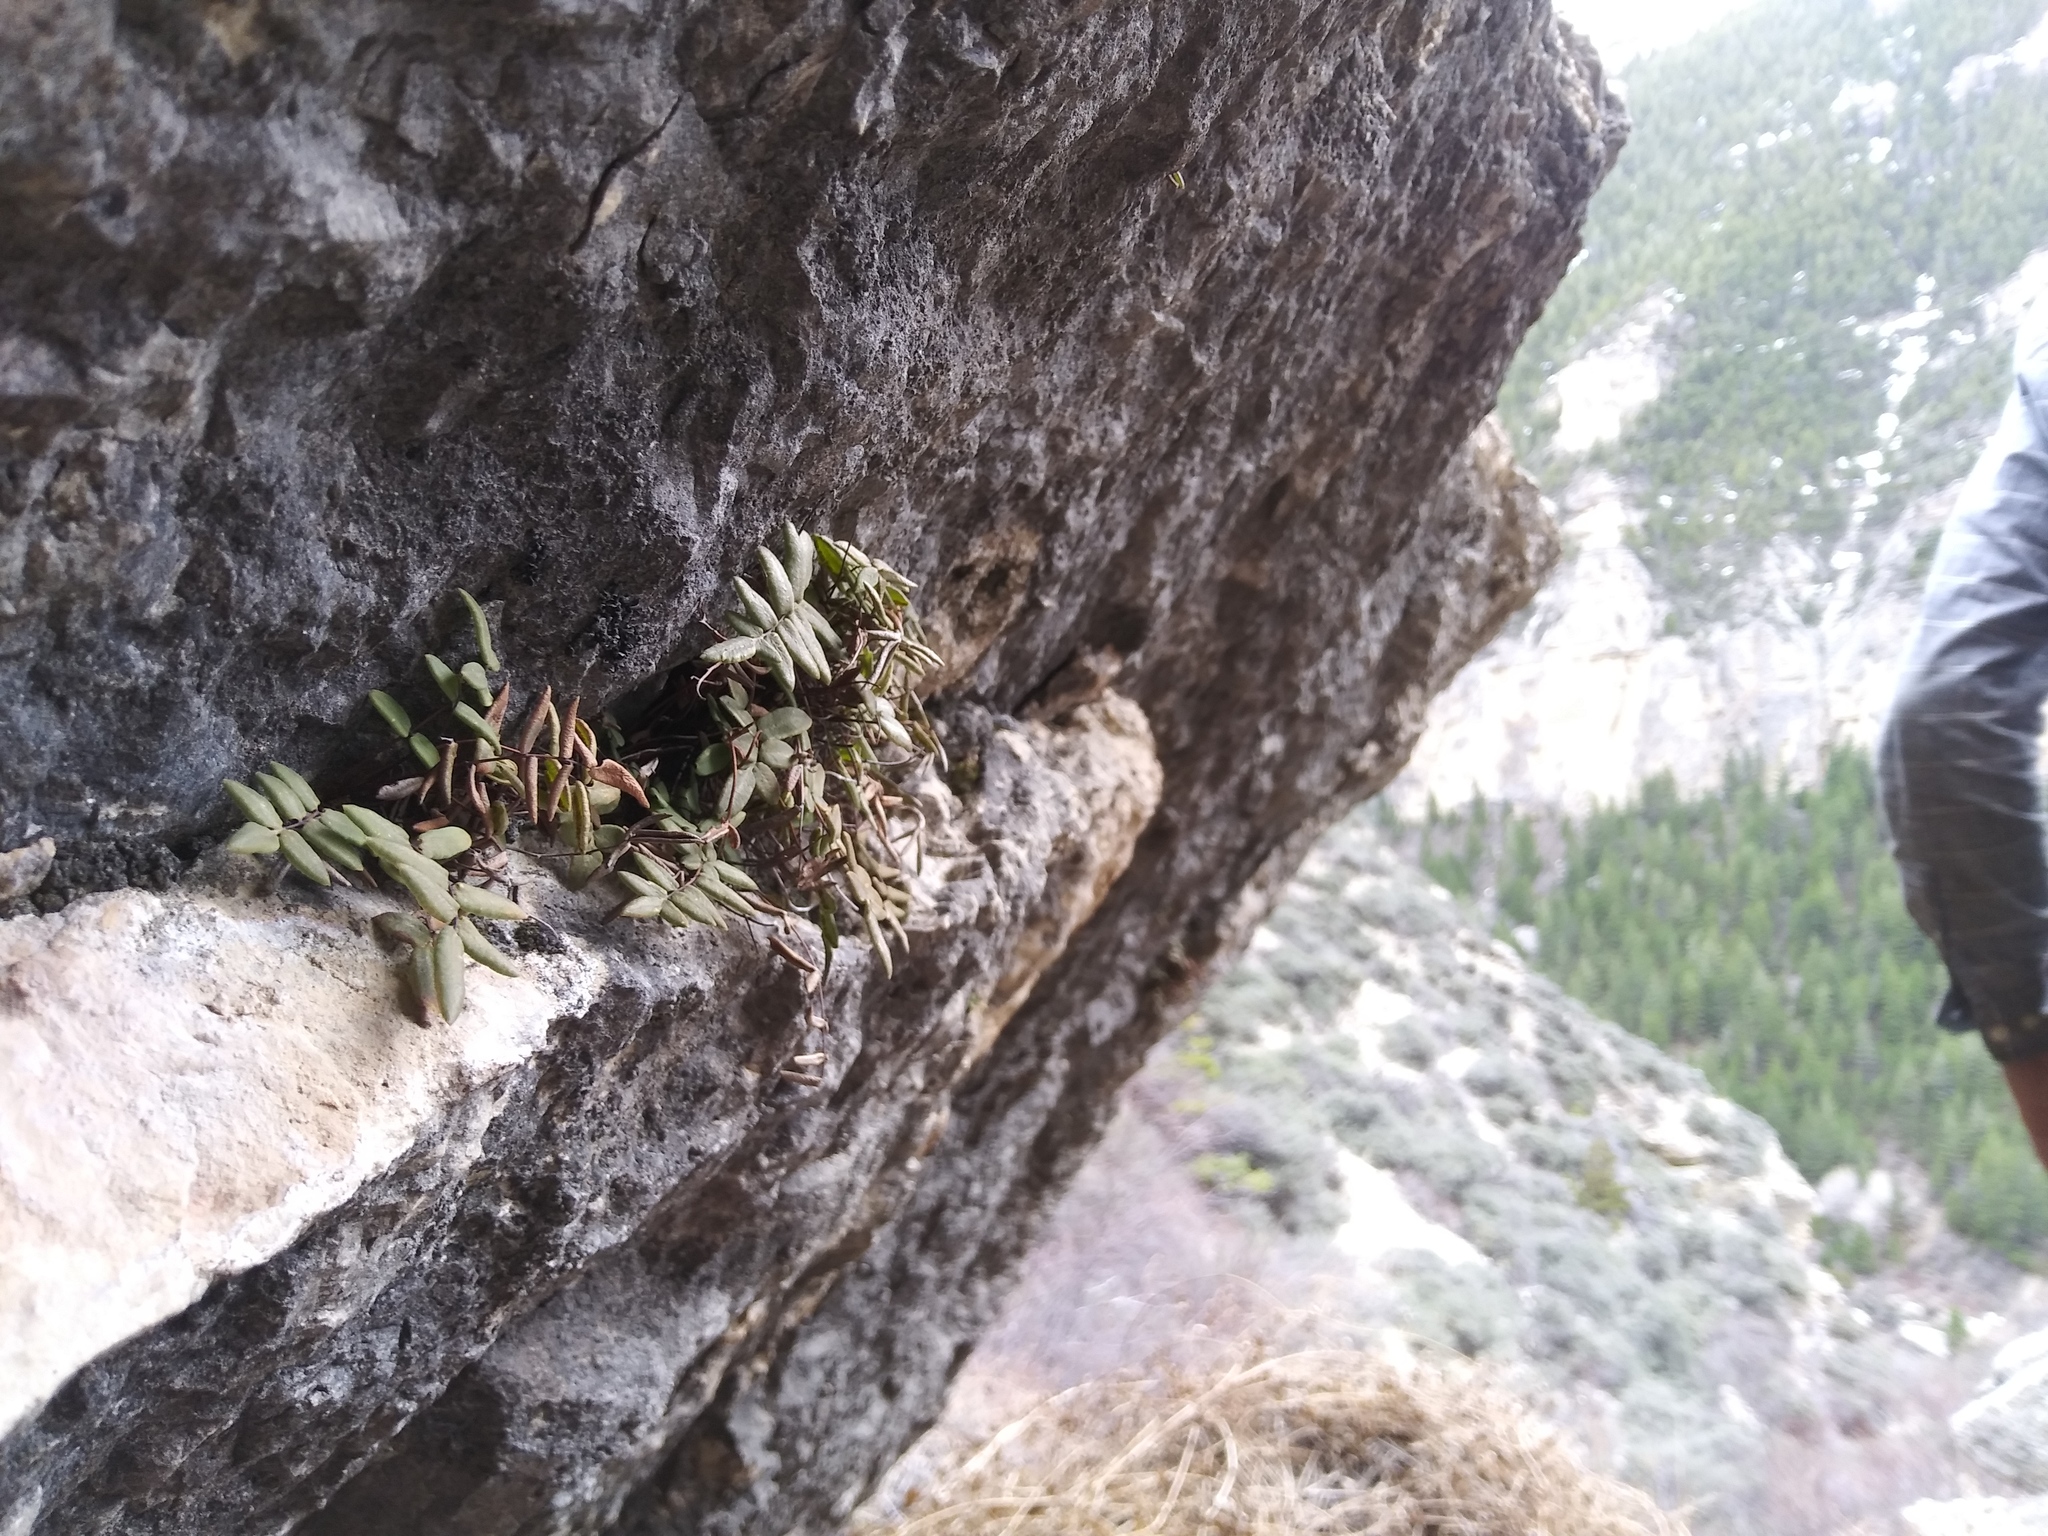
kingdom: Plantae
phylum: Tracheophyta
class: Polypodiopsida
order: Polypodiales
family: Pteridaceae
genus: Pellaea
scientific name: Pellaea glabella
